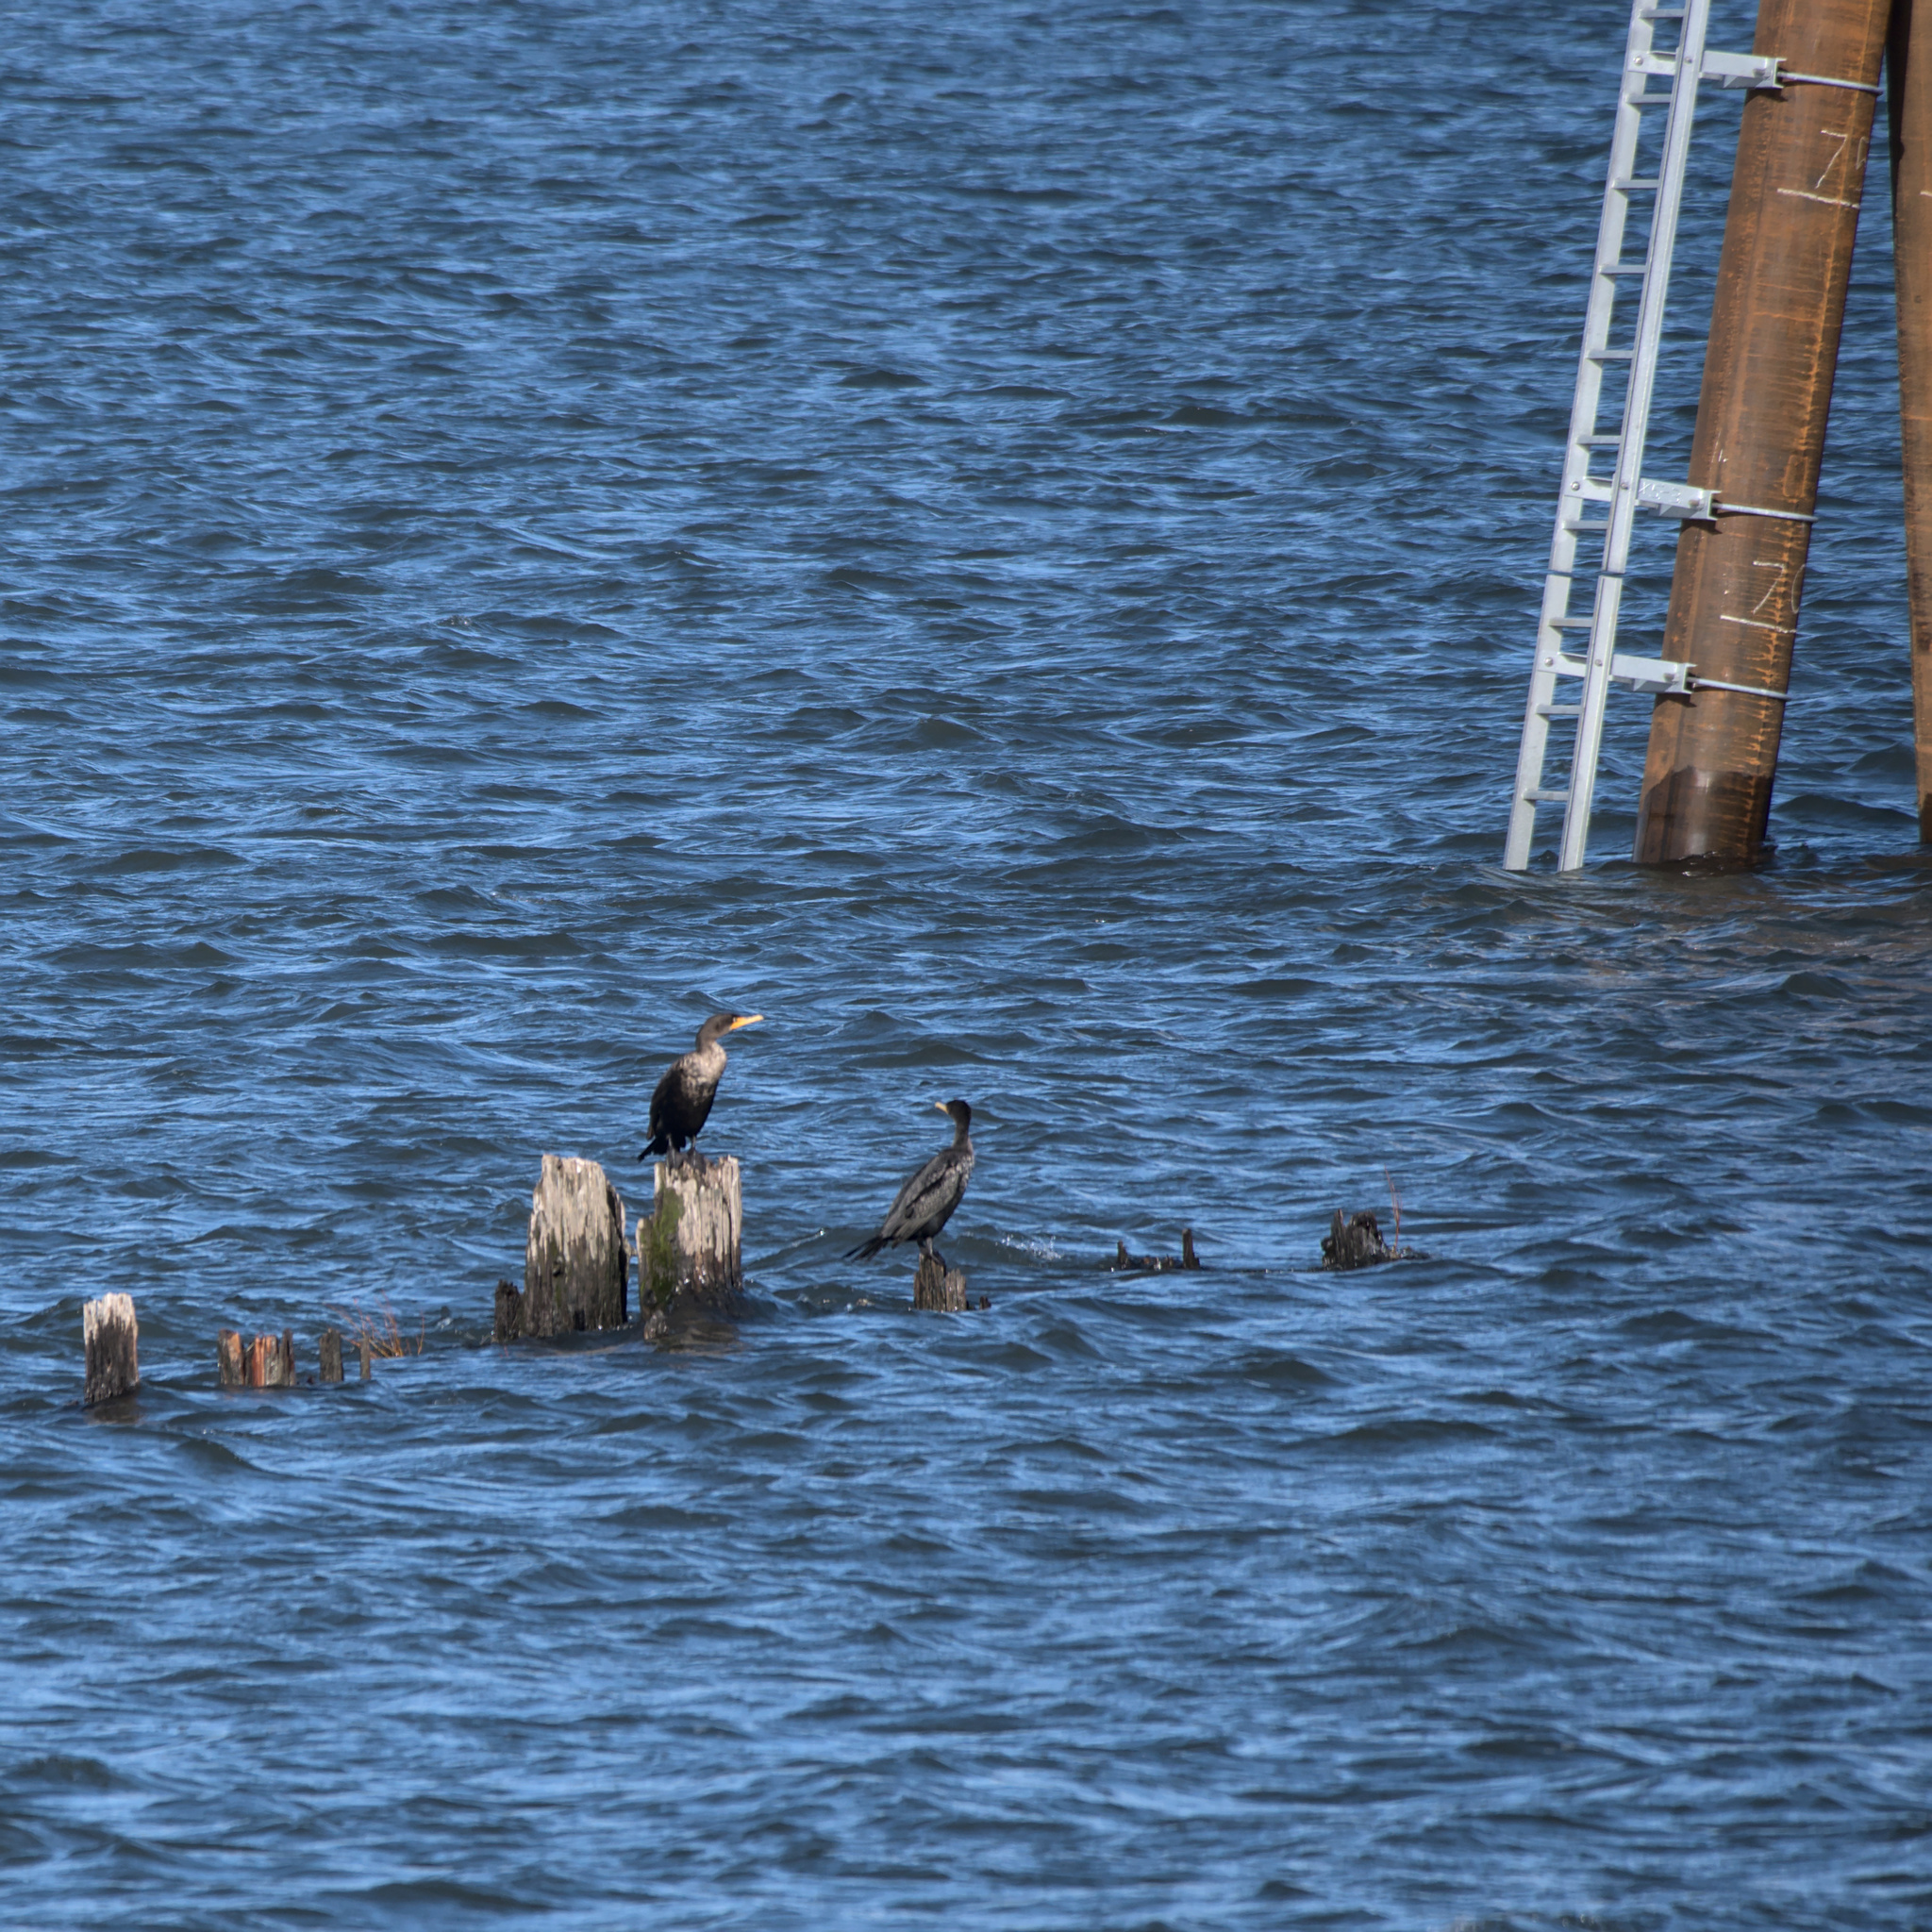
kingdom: Animalia
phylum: Chordata
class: Aves
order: Suliformes
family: Phalacrocoracidae
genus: Phalacrocorax
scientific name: Phalacrocorax auritus
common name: Double-crested cormorant
